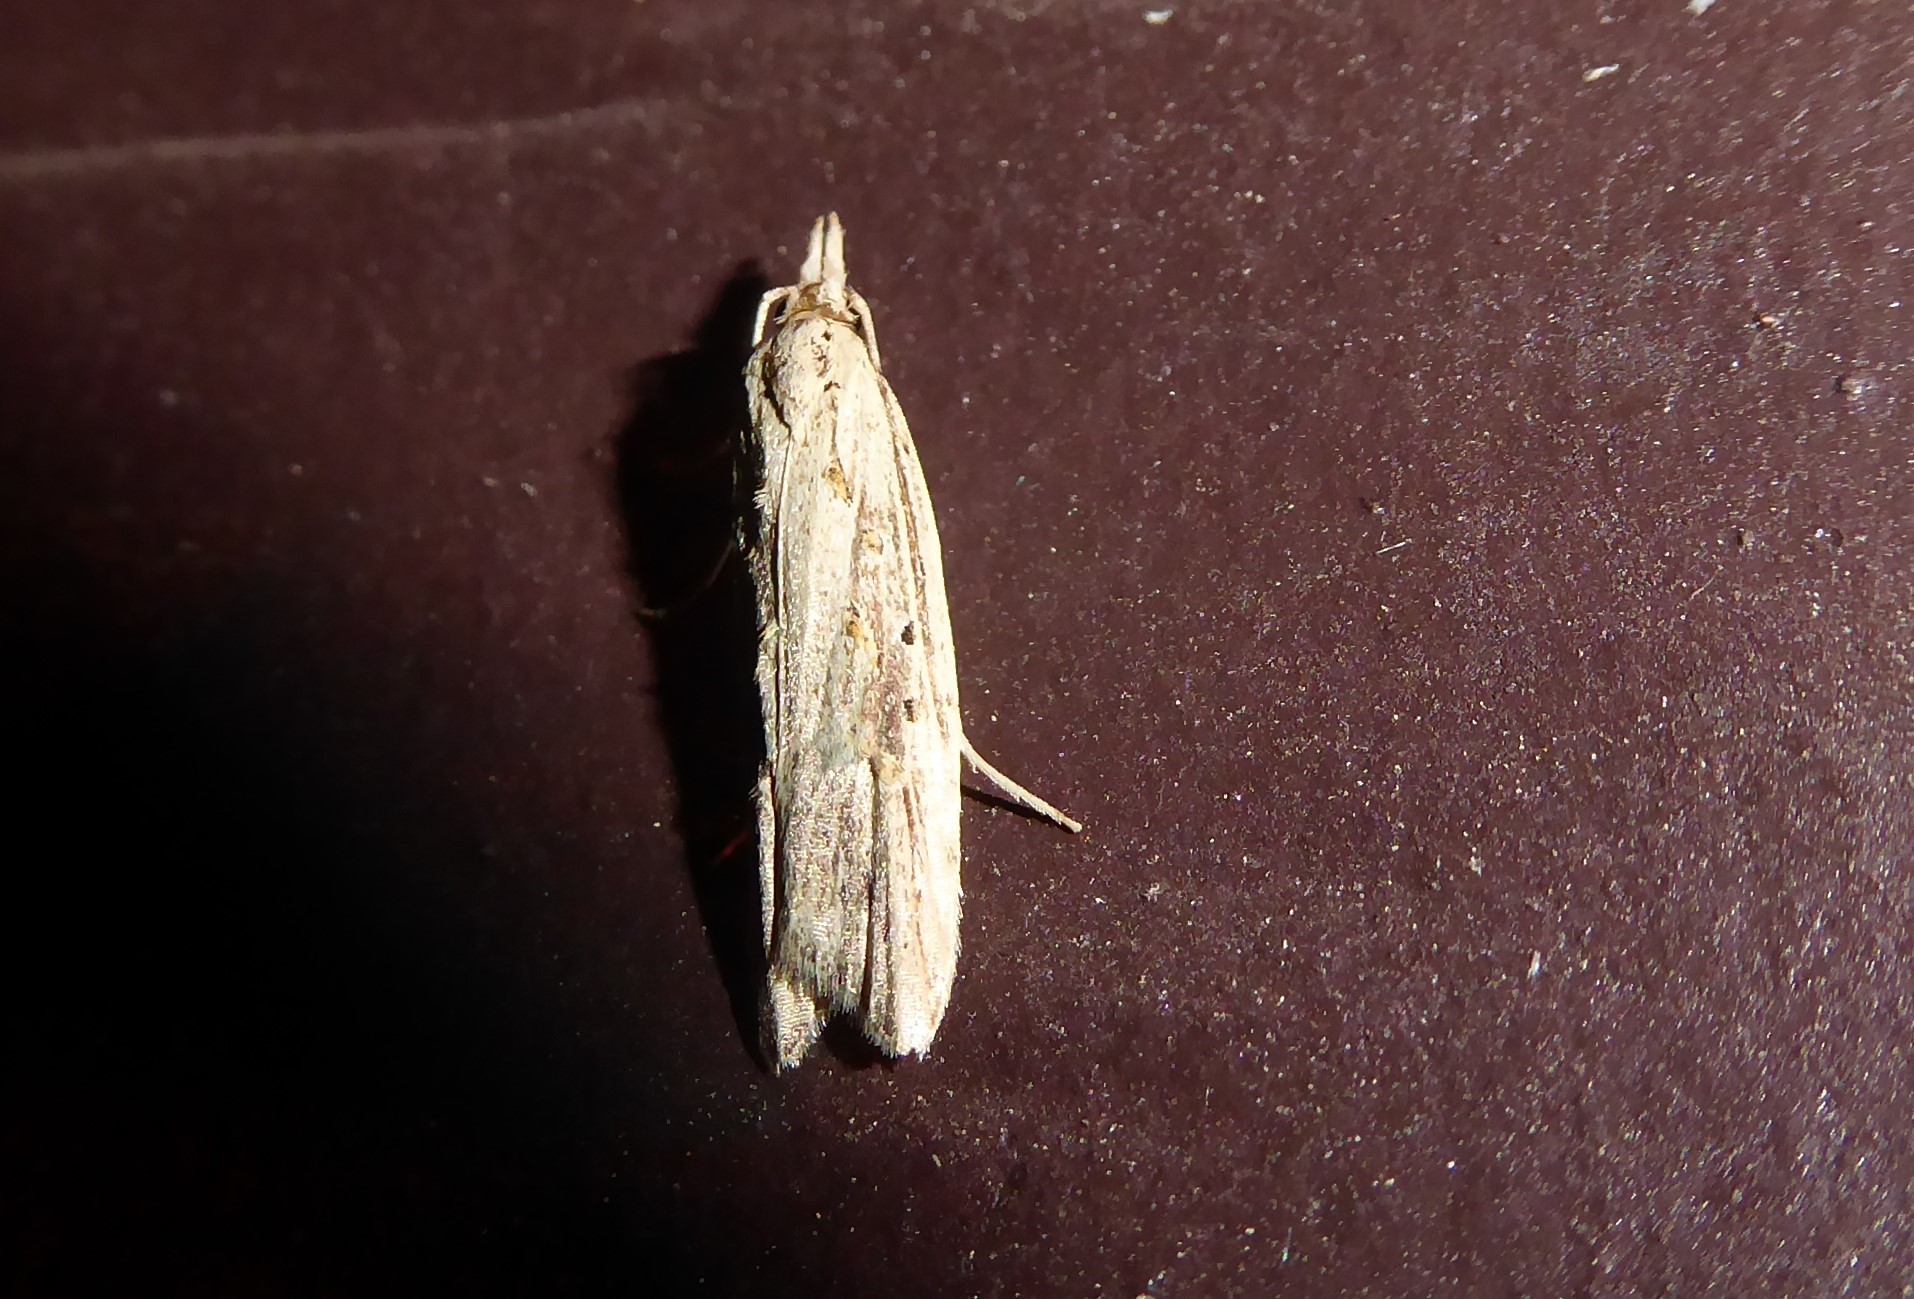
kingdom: Animalia
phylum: Arthropoda
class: Insecta
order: Lepidoptera
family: Carposinidae
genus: Carposina
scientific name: Carposina Heterocrossa exochana
